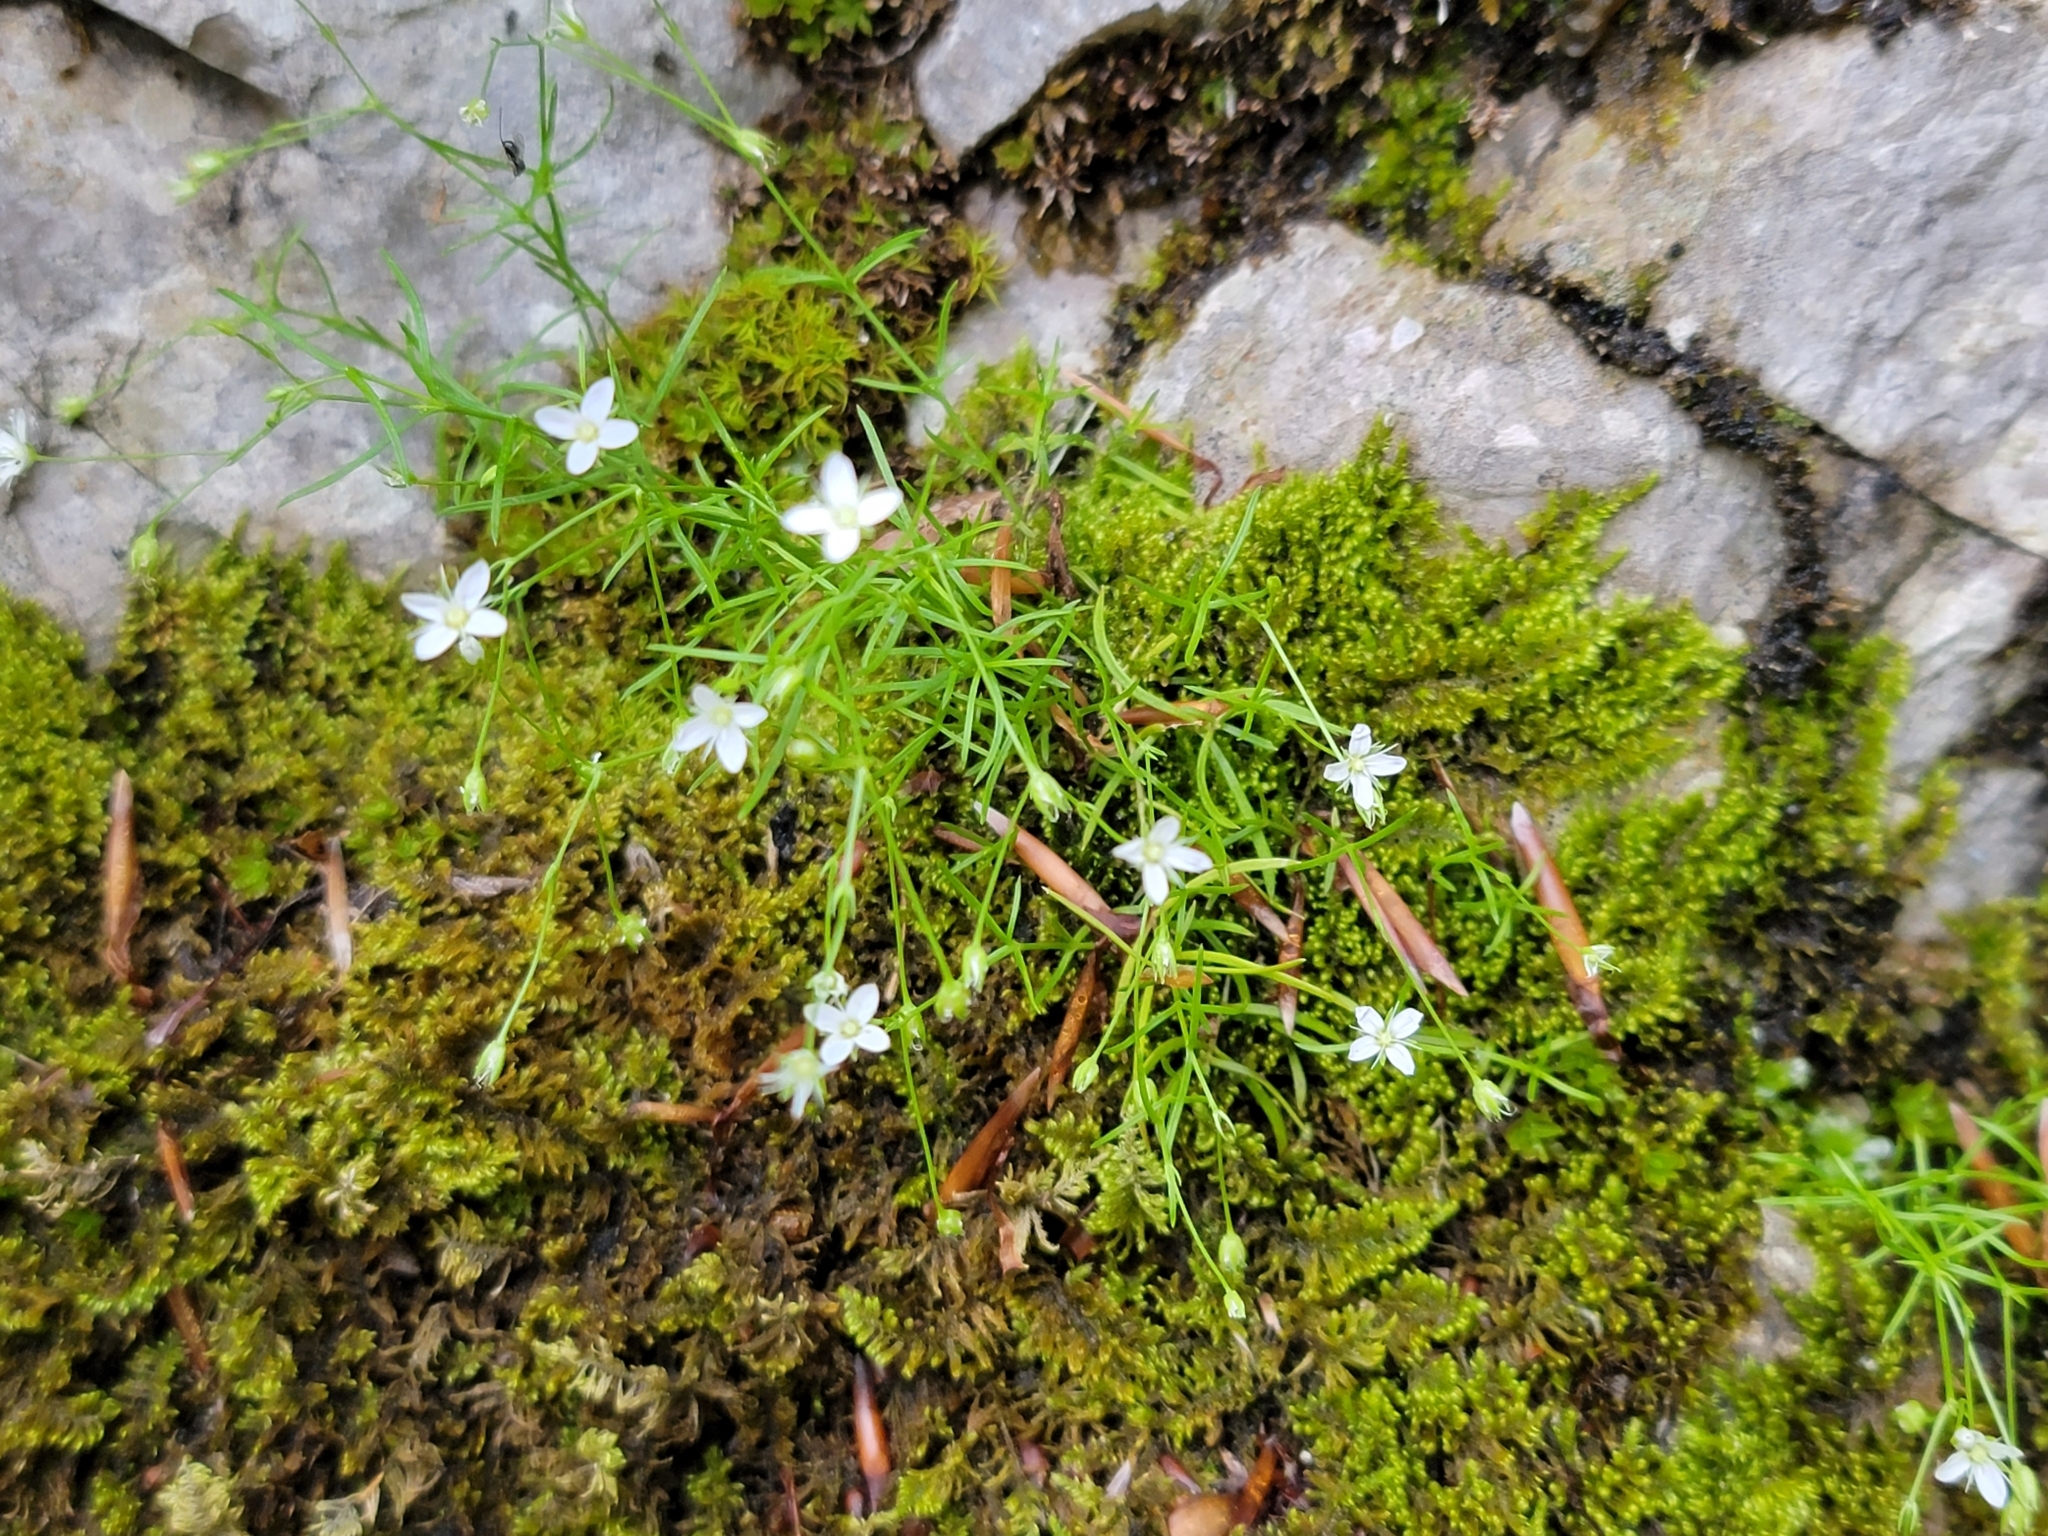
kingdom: Plantae
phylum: Tracheophyta
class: Magnoliopsida
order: Caryophyllales
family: Caryophyllaceae
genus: Moehringia
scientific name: Moehringia muscosa
